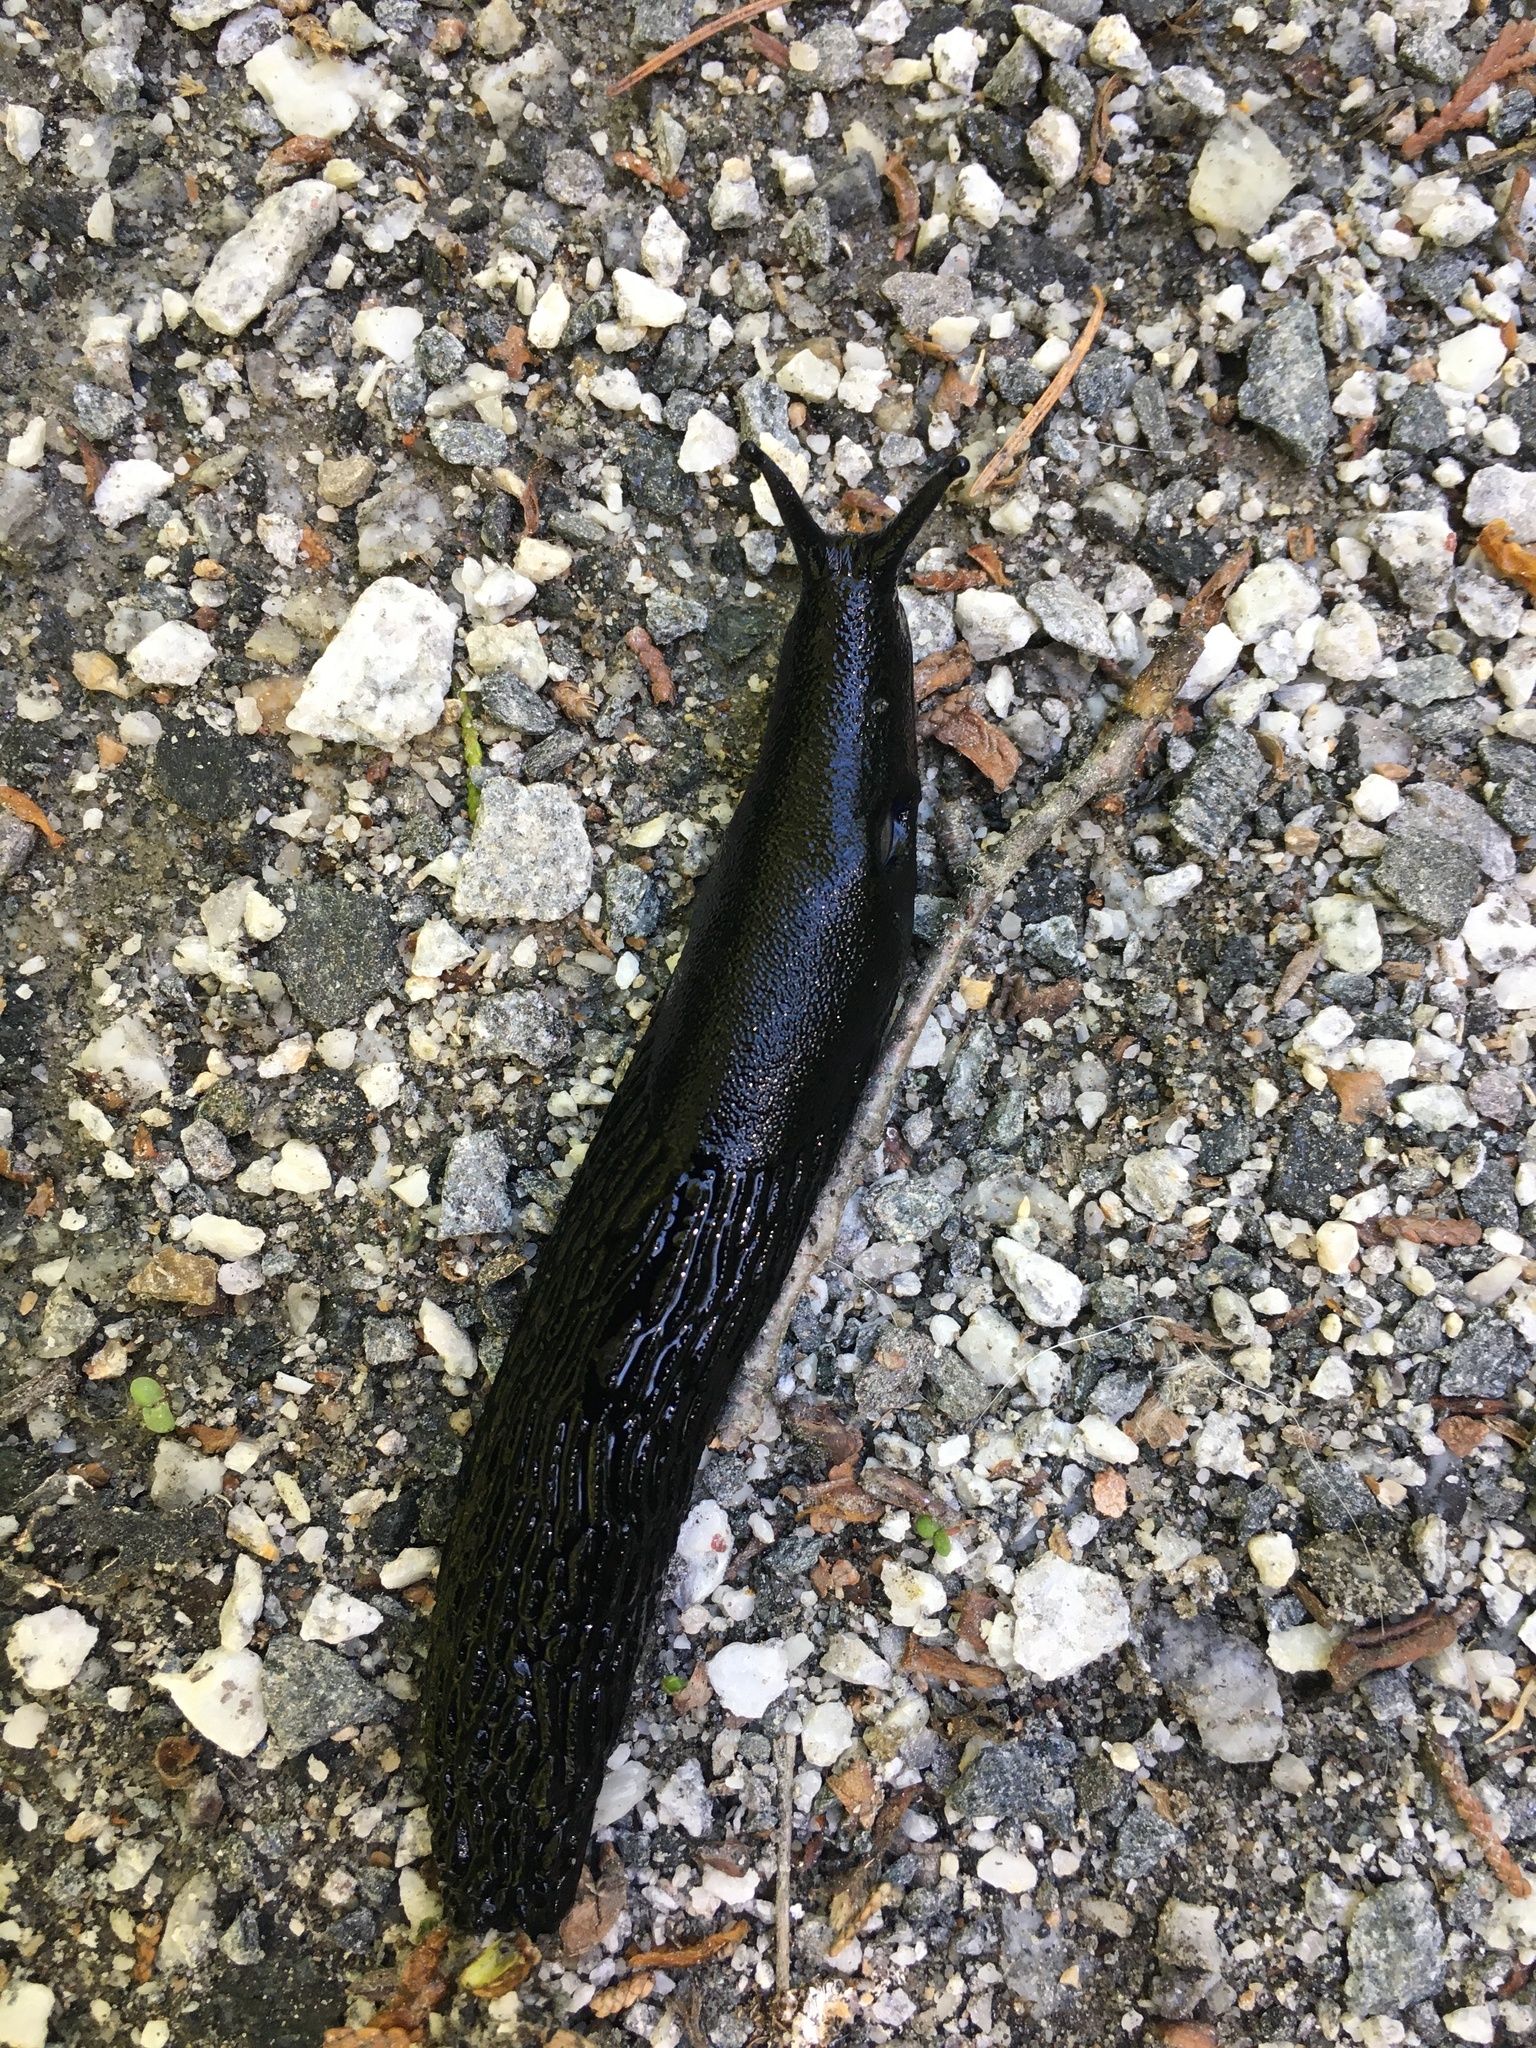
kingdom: Animalia
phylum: Mollusca
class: Gastropoda
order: Stylommatophora
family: Arionidae
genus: Arion
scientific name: Arion
